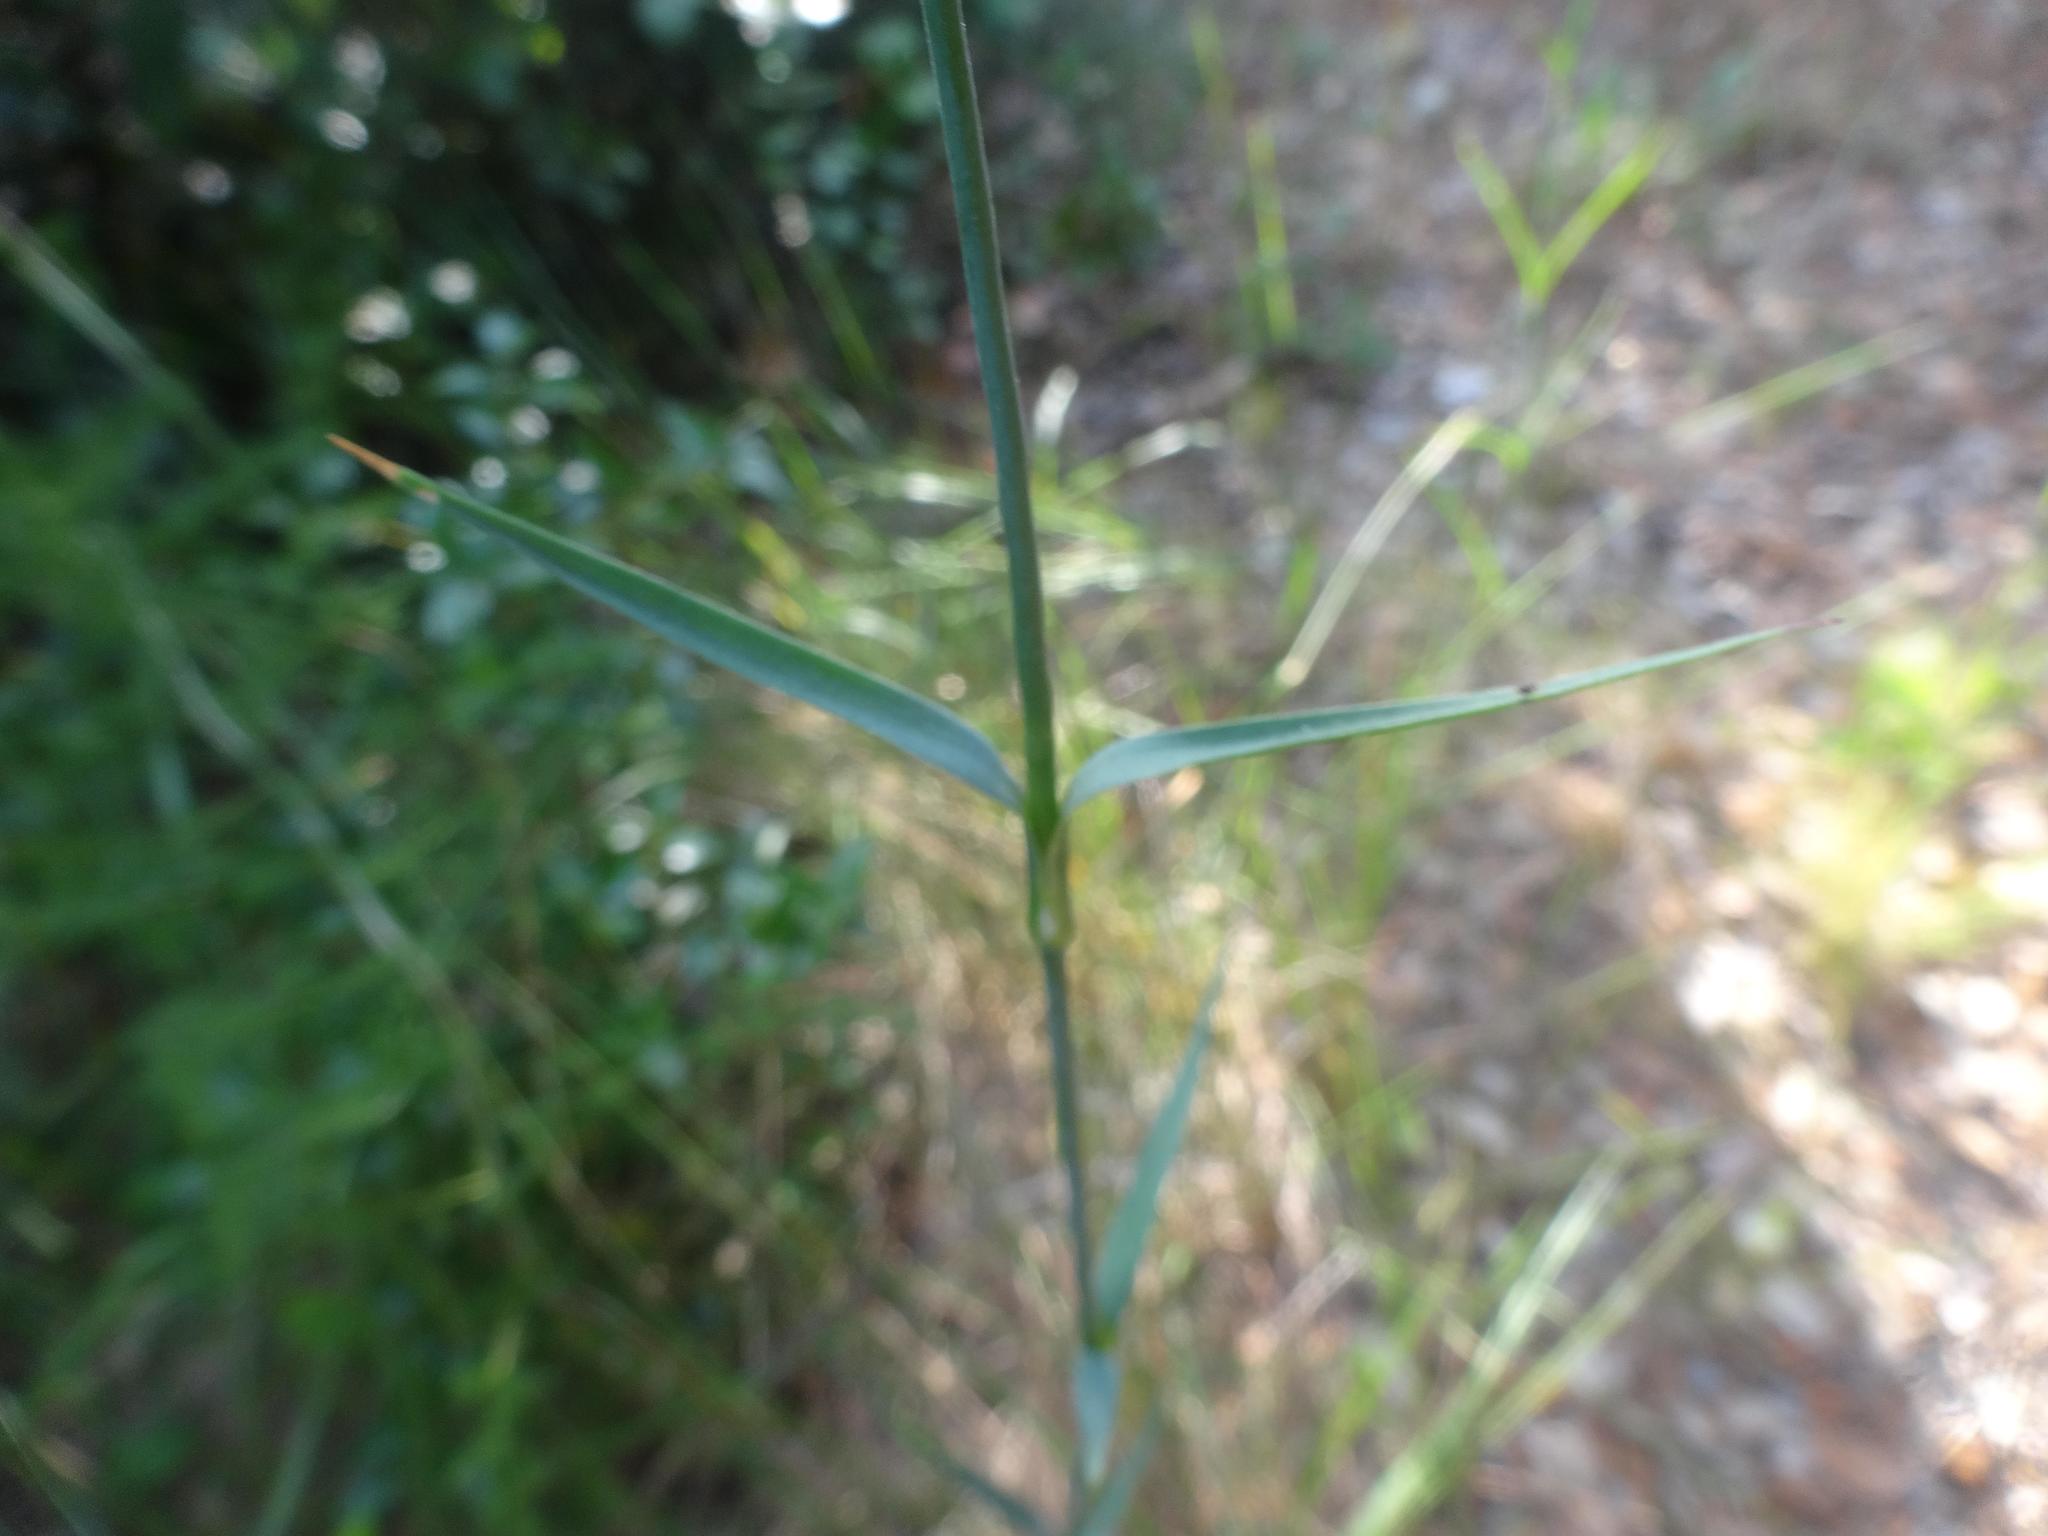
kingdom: Plantae
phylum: Tracheophyta
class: Magnoliopsida
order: Caryophyllales
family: Caryophyllaceae
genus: Dianthus
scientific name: Dianthus balbisii
